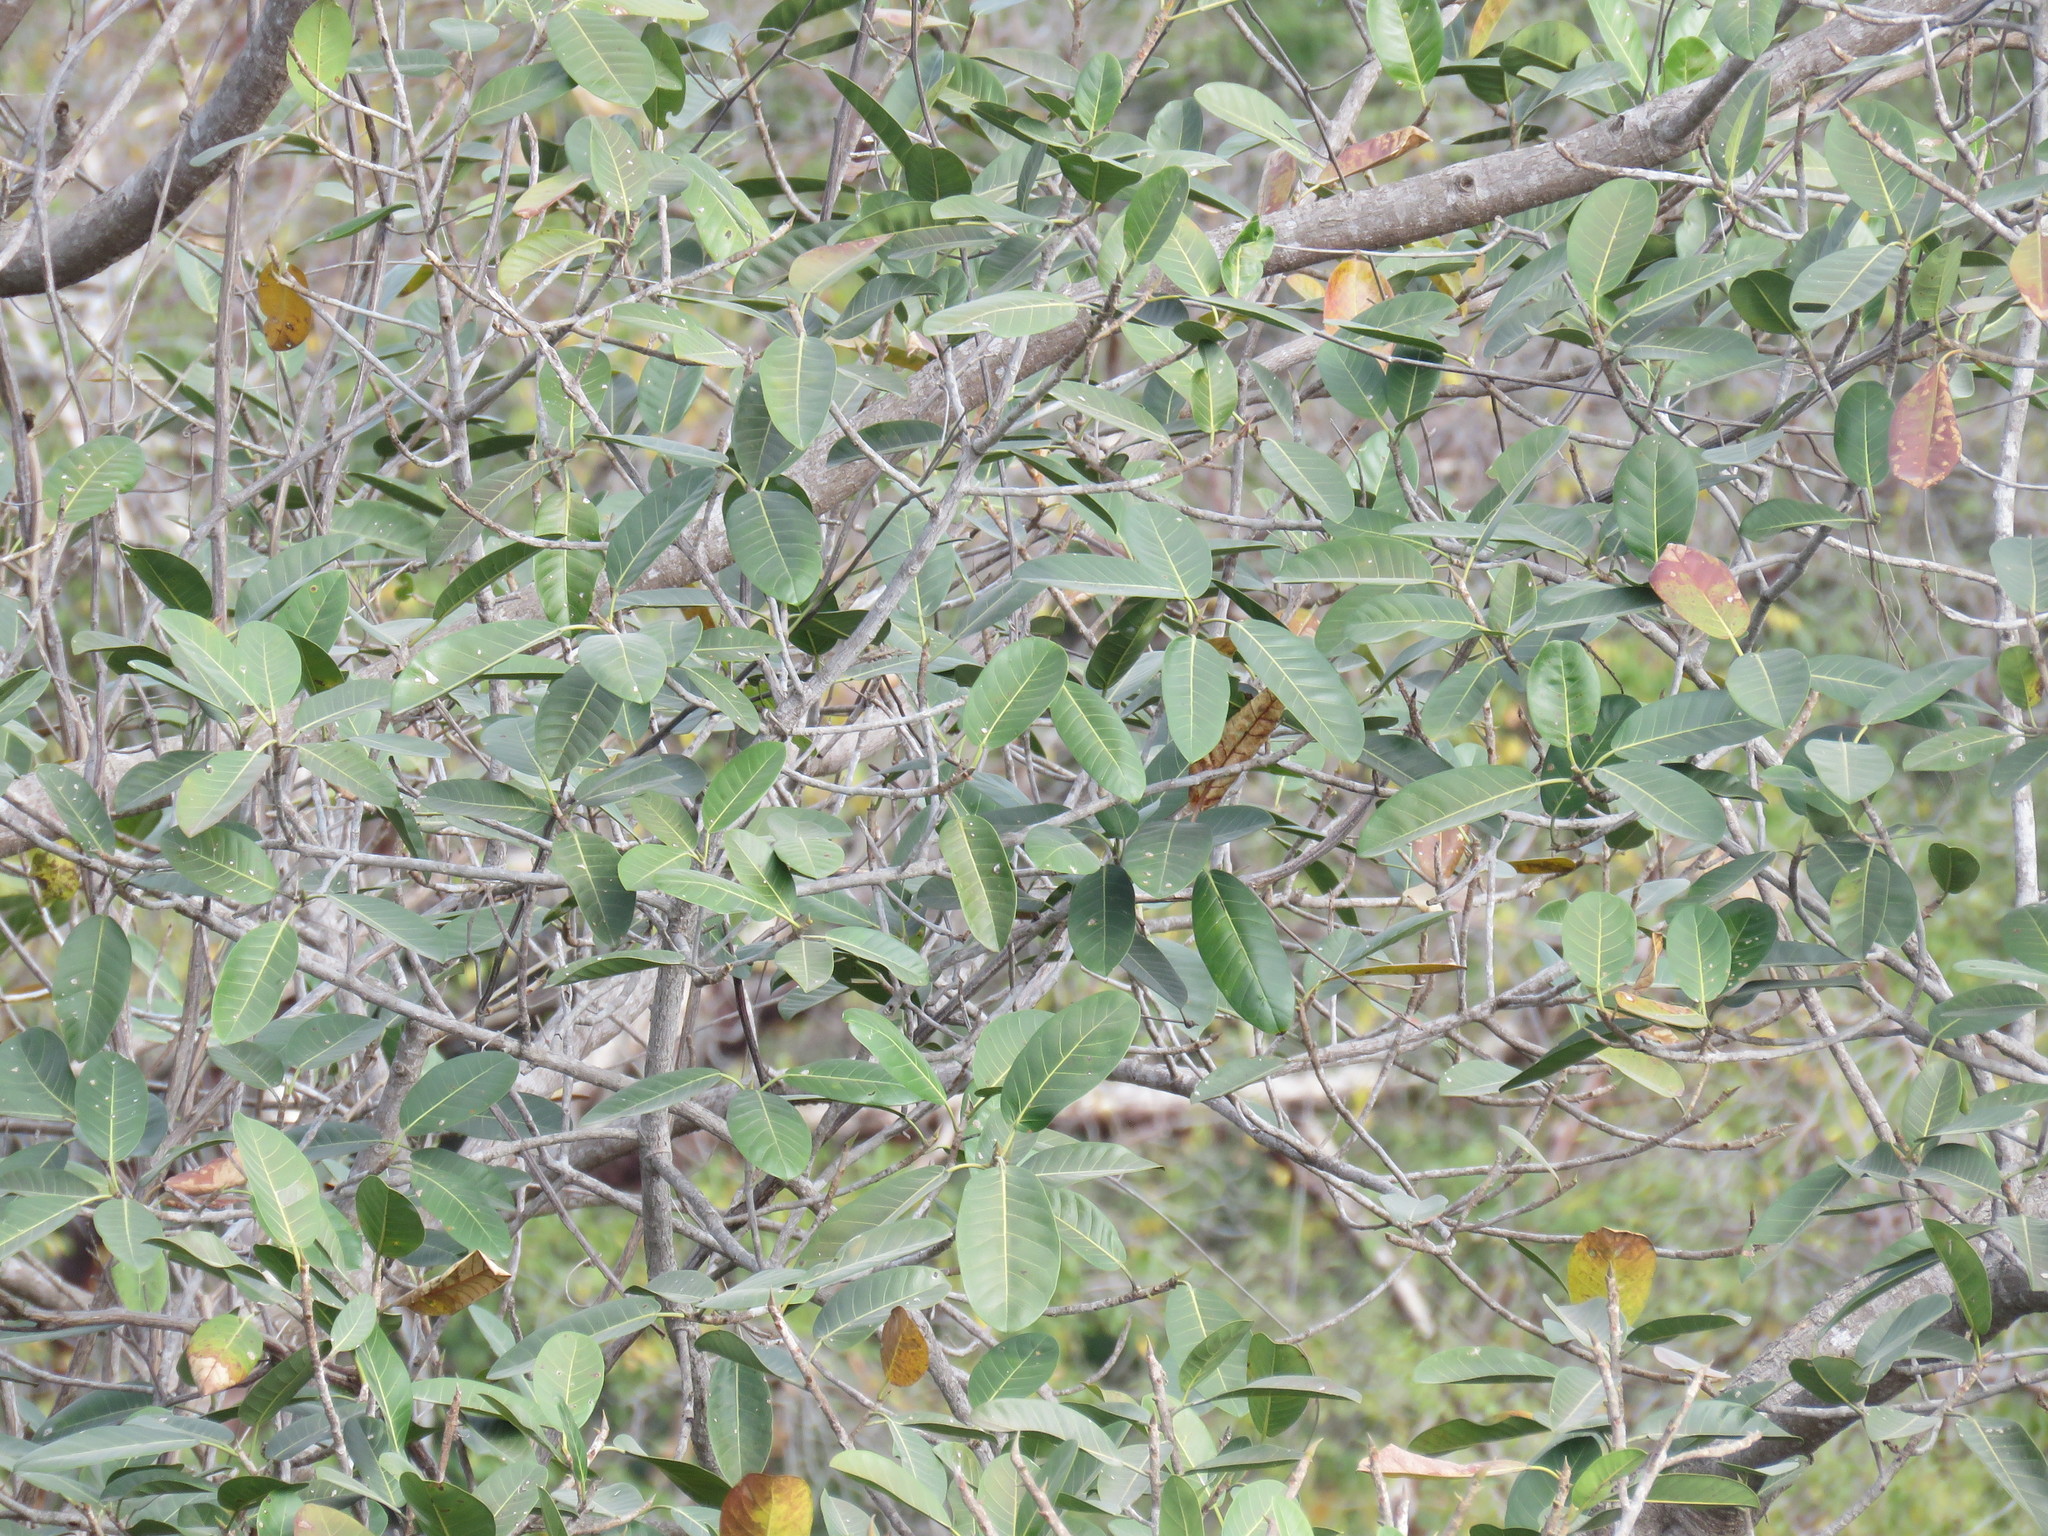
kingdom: Plantae
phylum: Tracheophyta
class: Magnoliopsida
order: Rosales
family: Moraceae
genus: Ficus
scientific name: Ficus maxima
